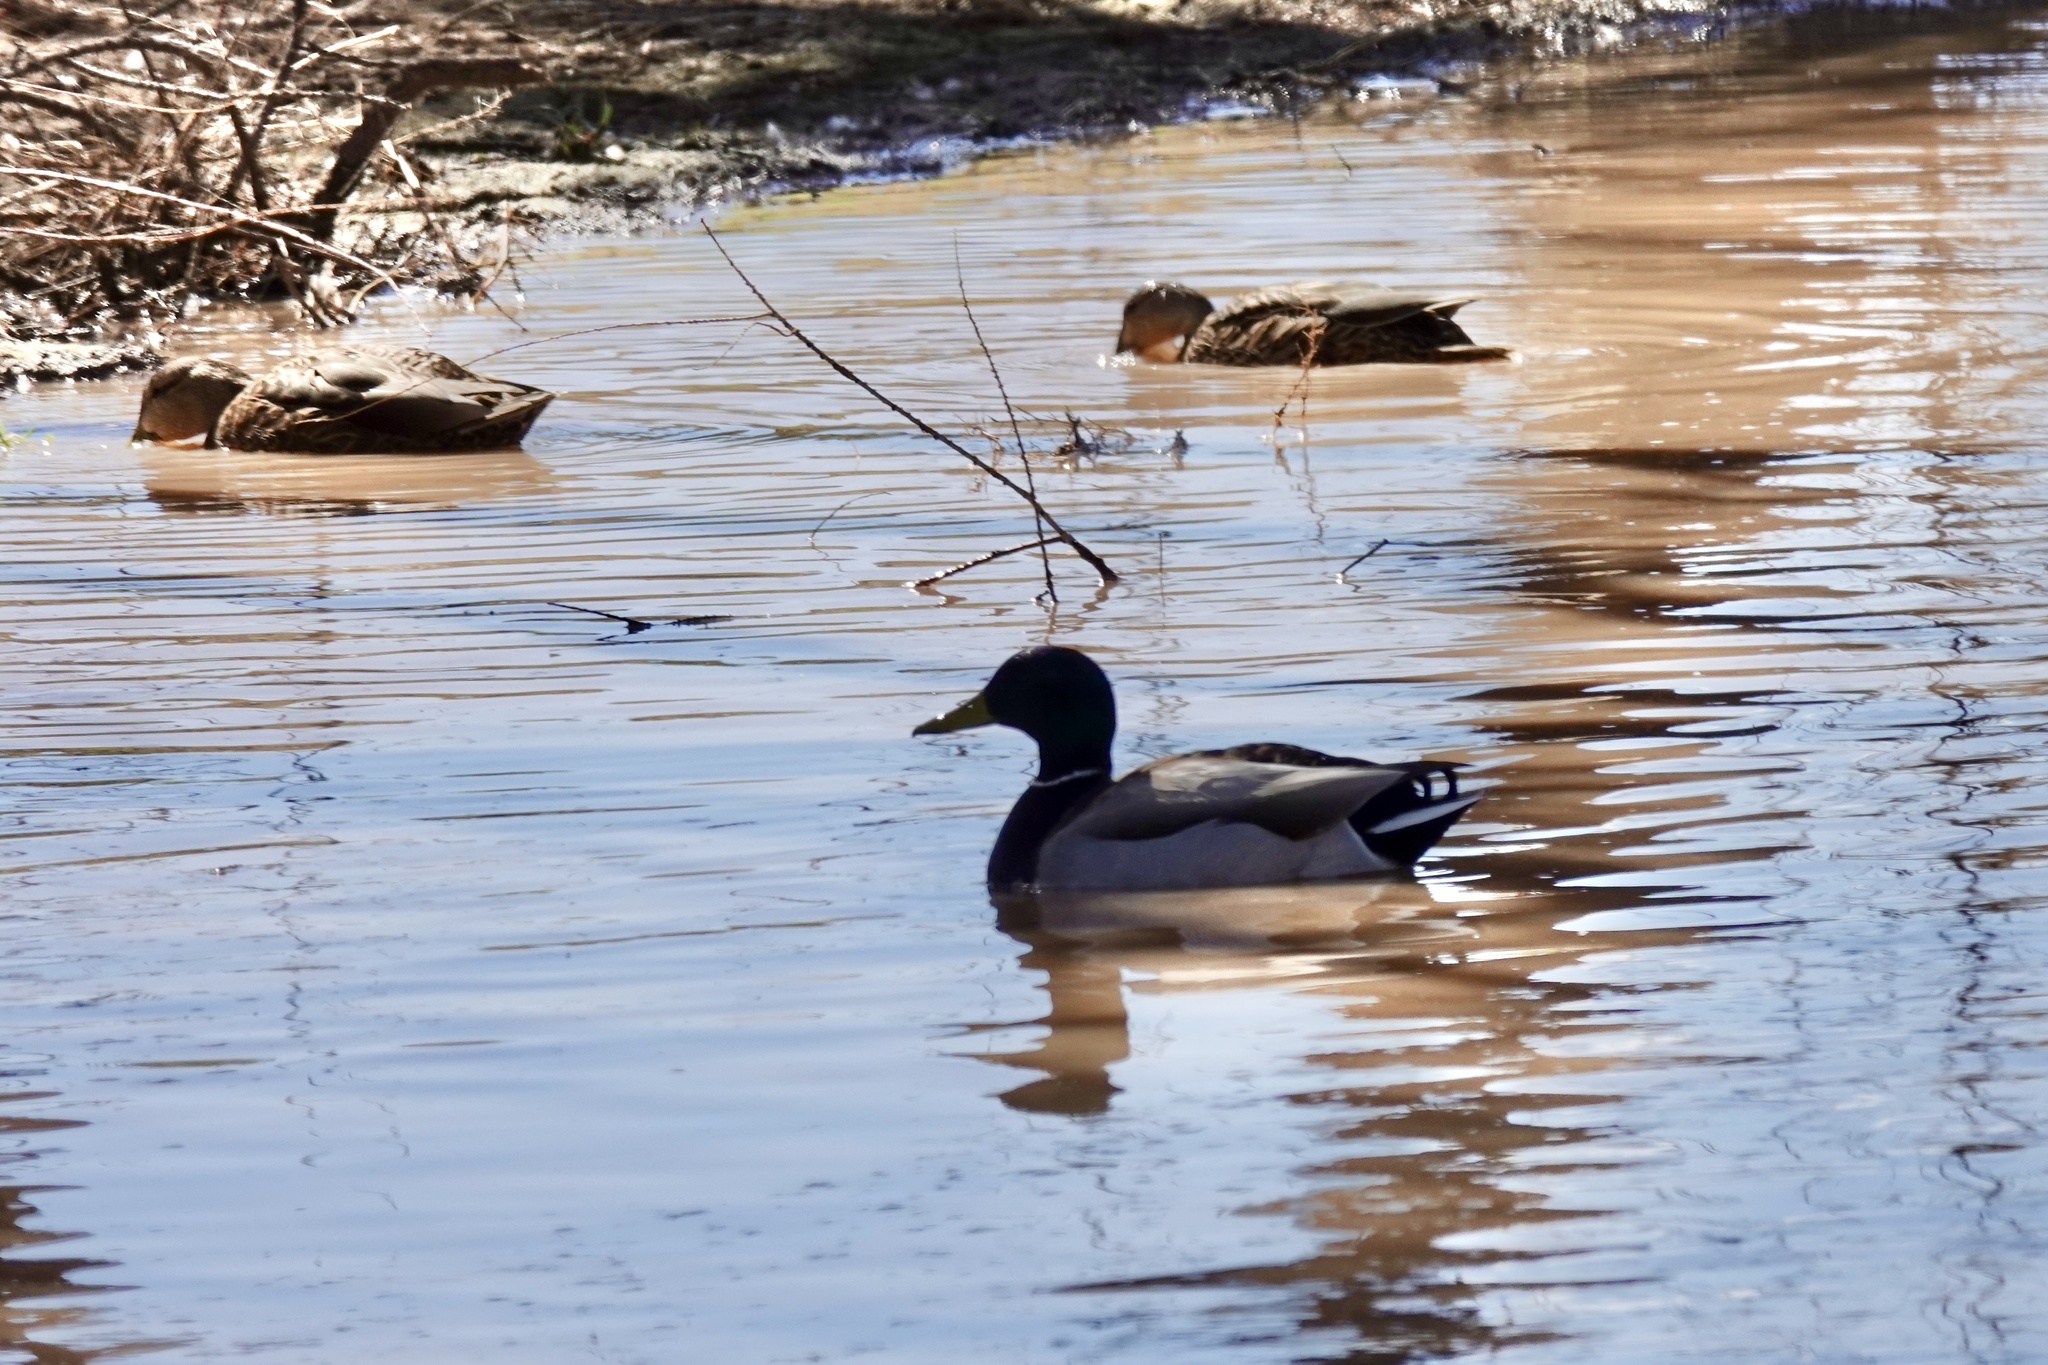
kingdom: Animalia
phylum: Chordata
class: Aves
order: Anseriformes
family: Anatidae
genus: Anas
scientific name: Anas platyrhynchos
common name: Mallard
